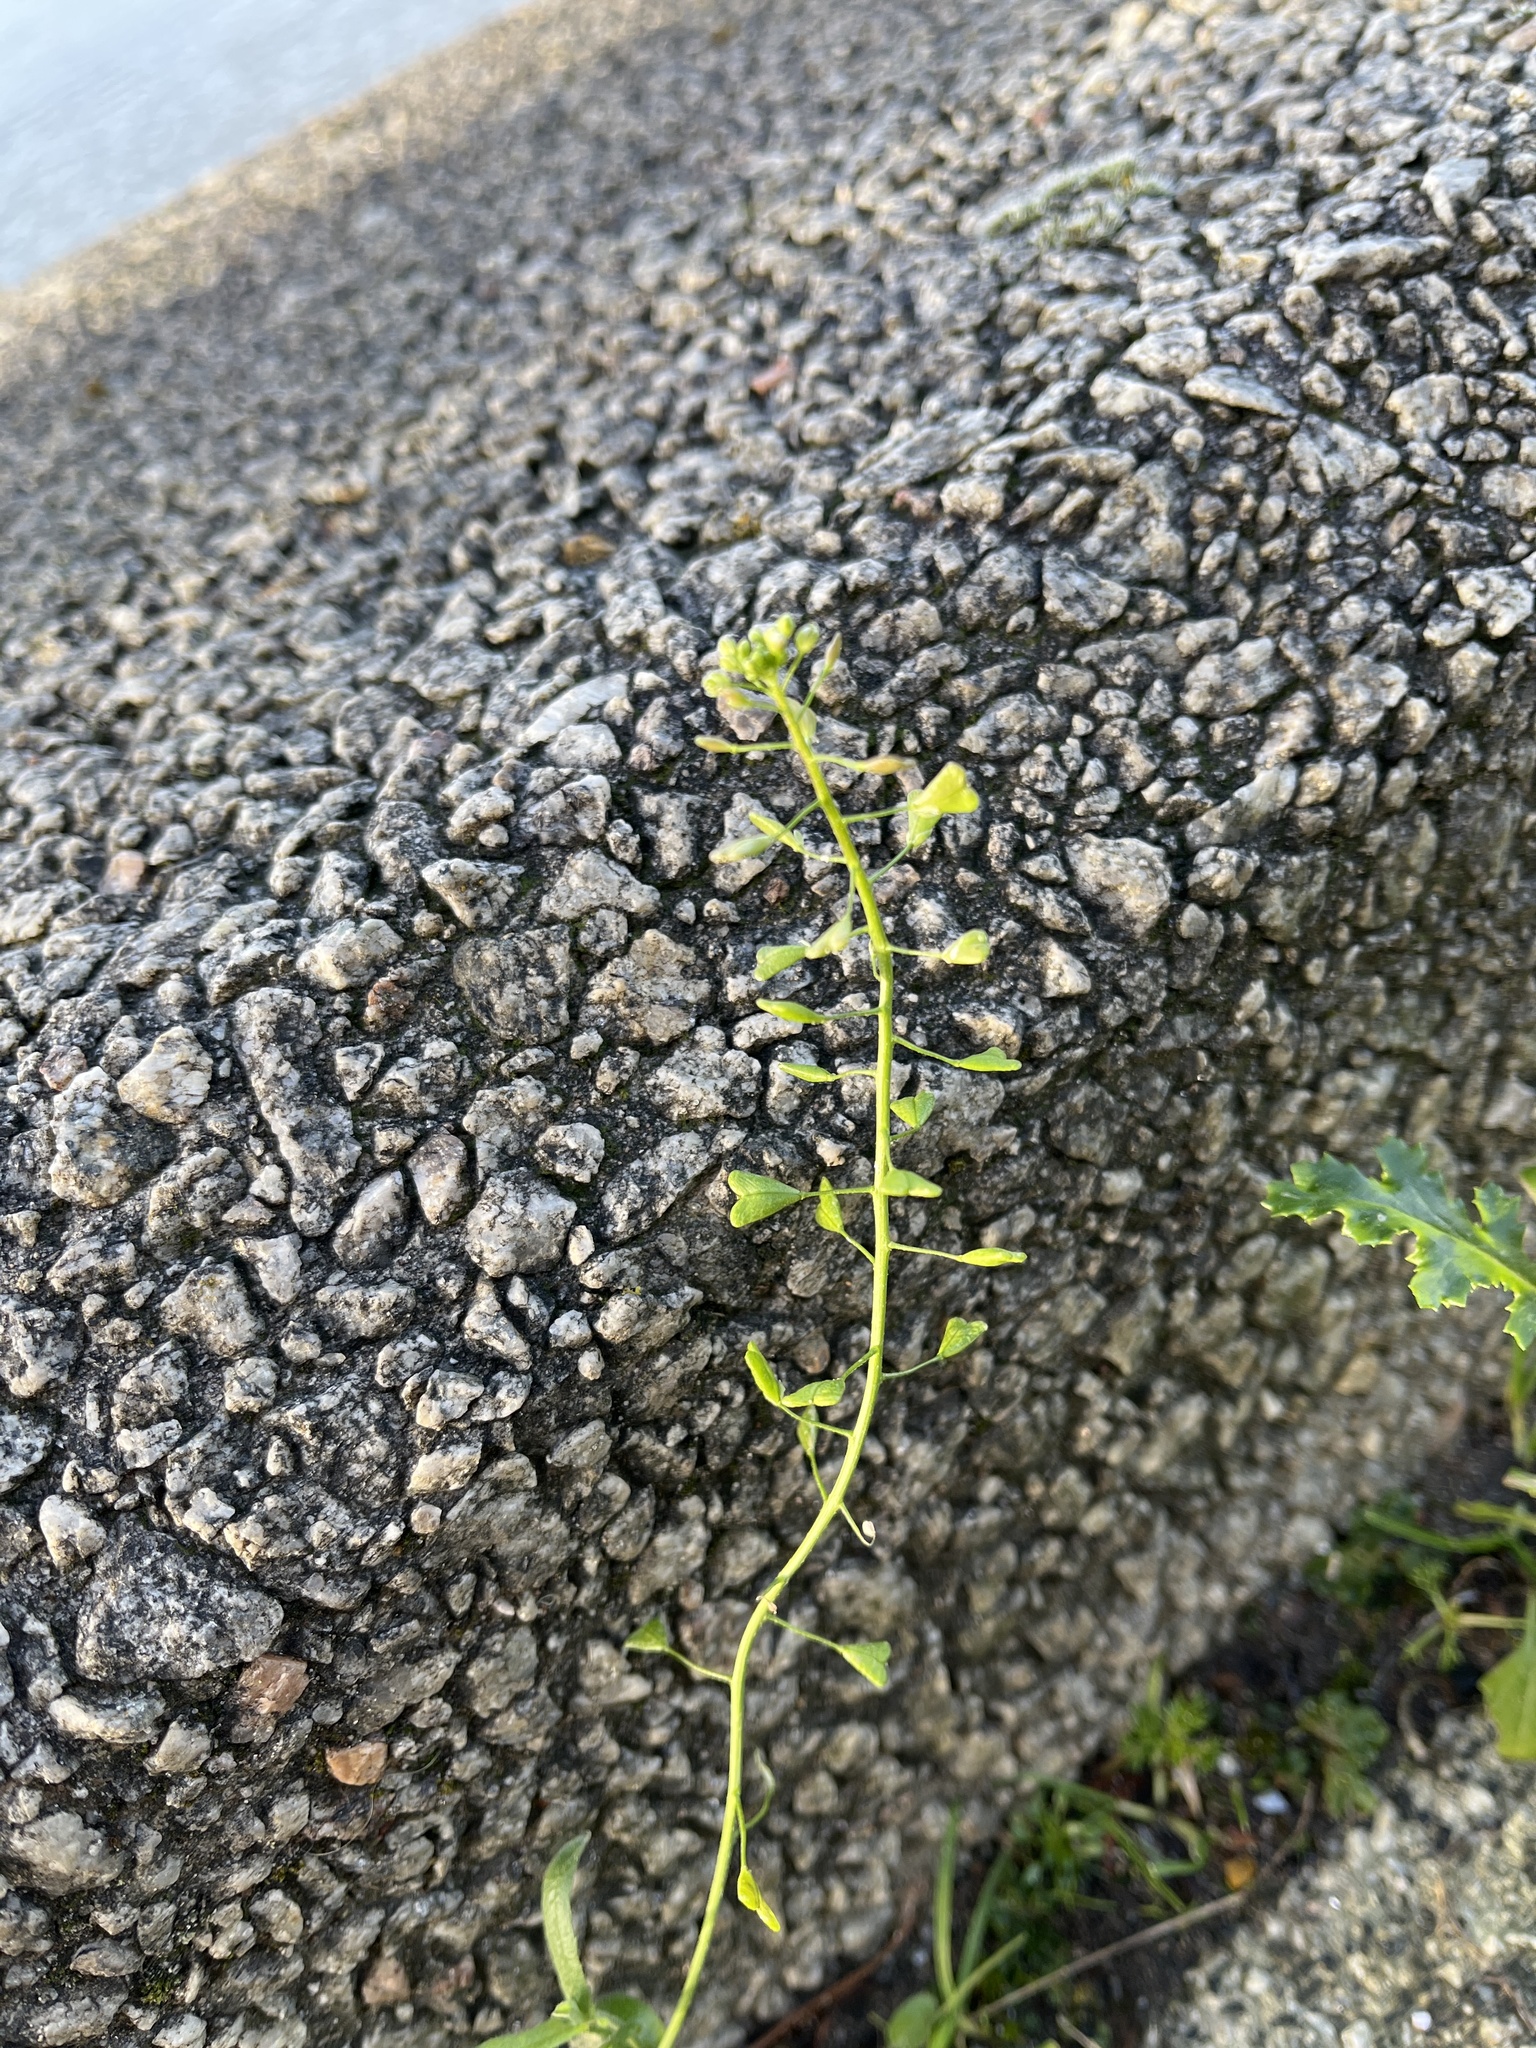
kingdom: Plantae
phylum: Tracheophyta
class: Magnoliopsida
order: Brassicales
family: Brassicaceae
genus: Capsella
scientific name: Capsella bursa-pastoris
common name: Shepherd's purse
